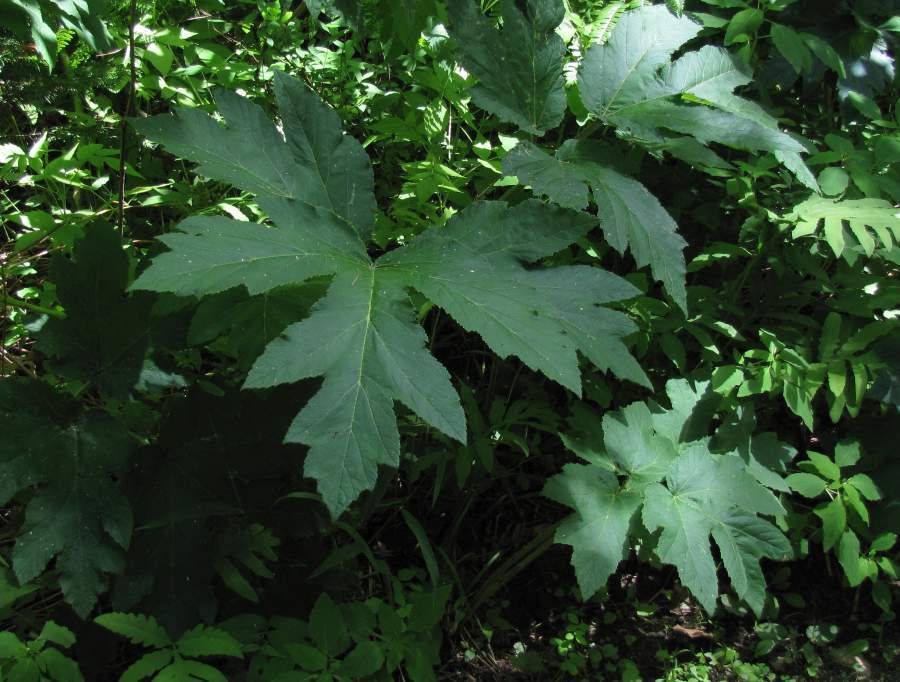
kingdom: Plantae
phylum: Tracheophyta
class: Magnoliopsida
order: Apiales
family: Apiaceae
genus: Heracleum
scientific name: Heracleum maximum
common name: American cow parsnip
